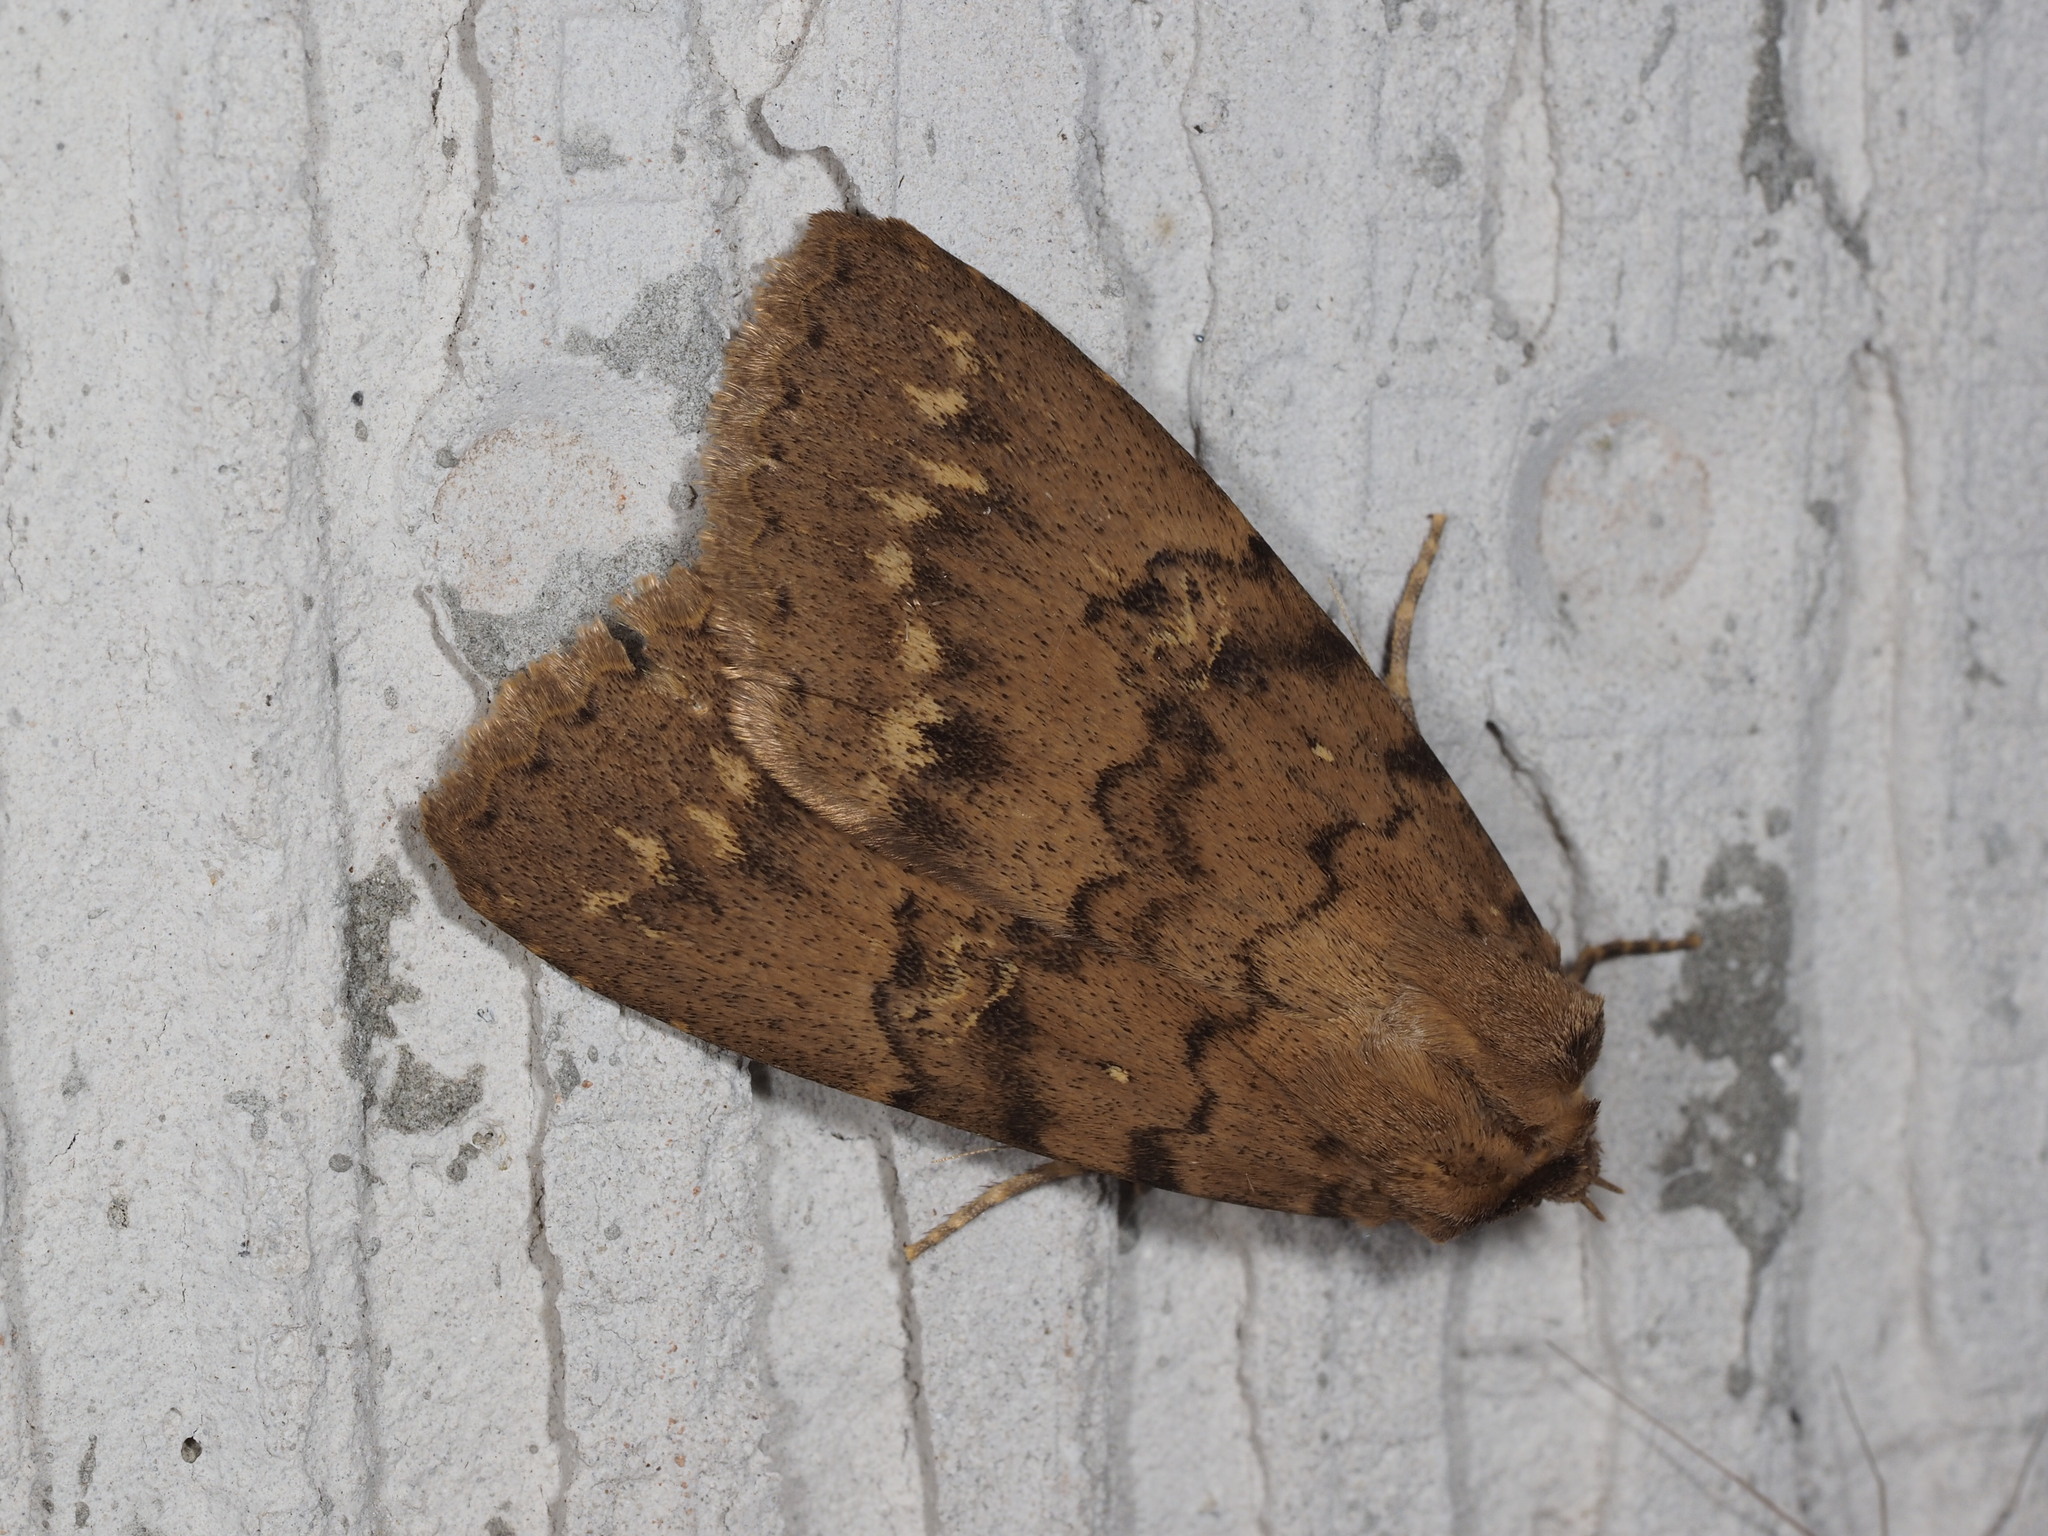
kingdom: Animalia
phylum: Arthropoda
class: Insecta
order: Lepidoptera
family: Erebidae
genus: Apopestes
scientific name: Apopestes spectrum
